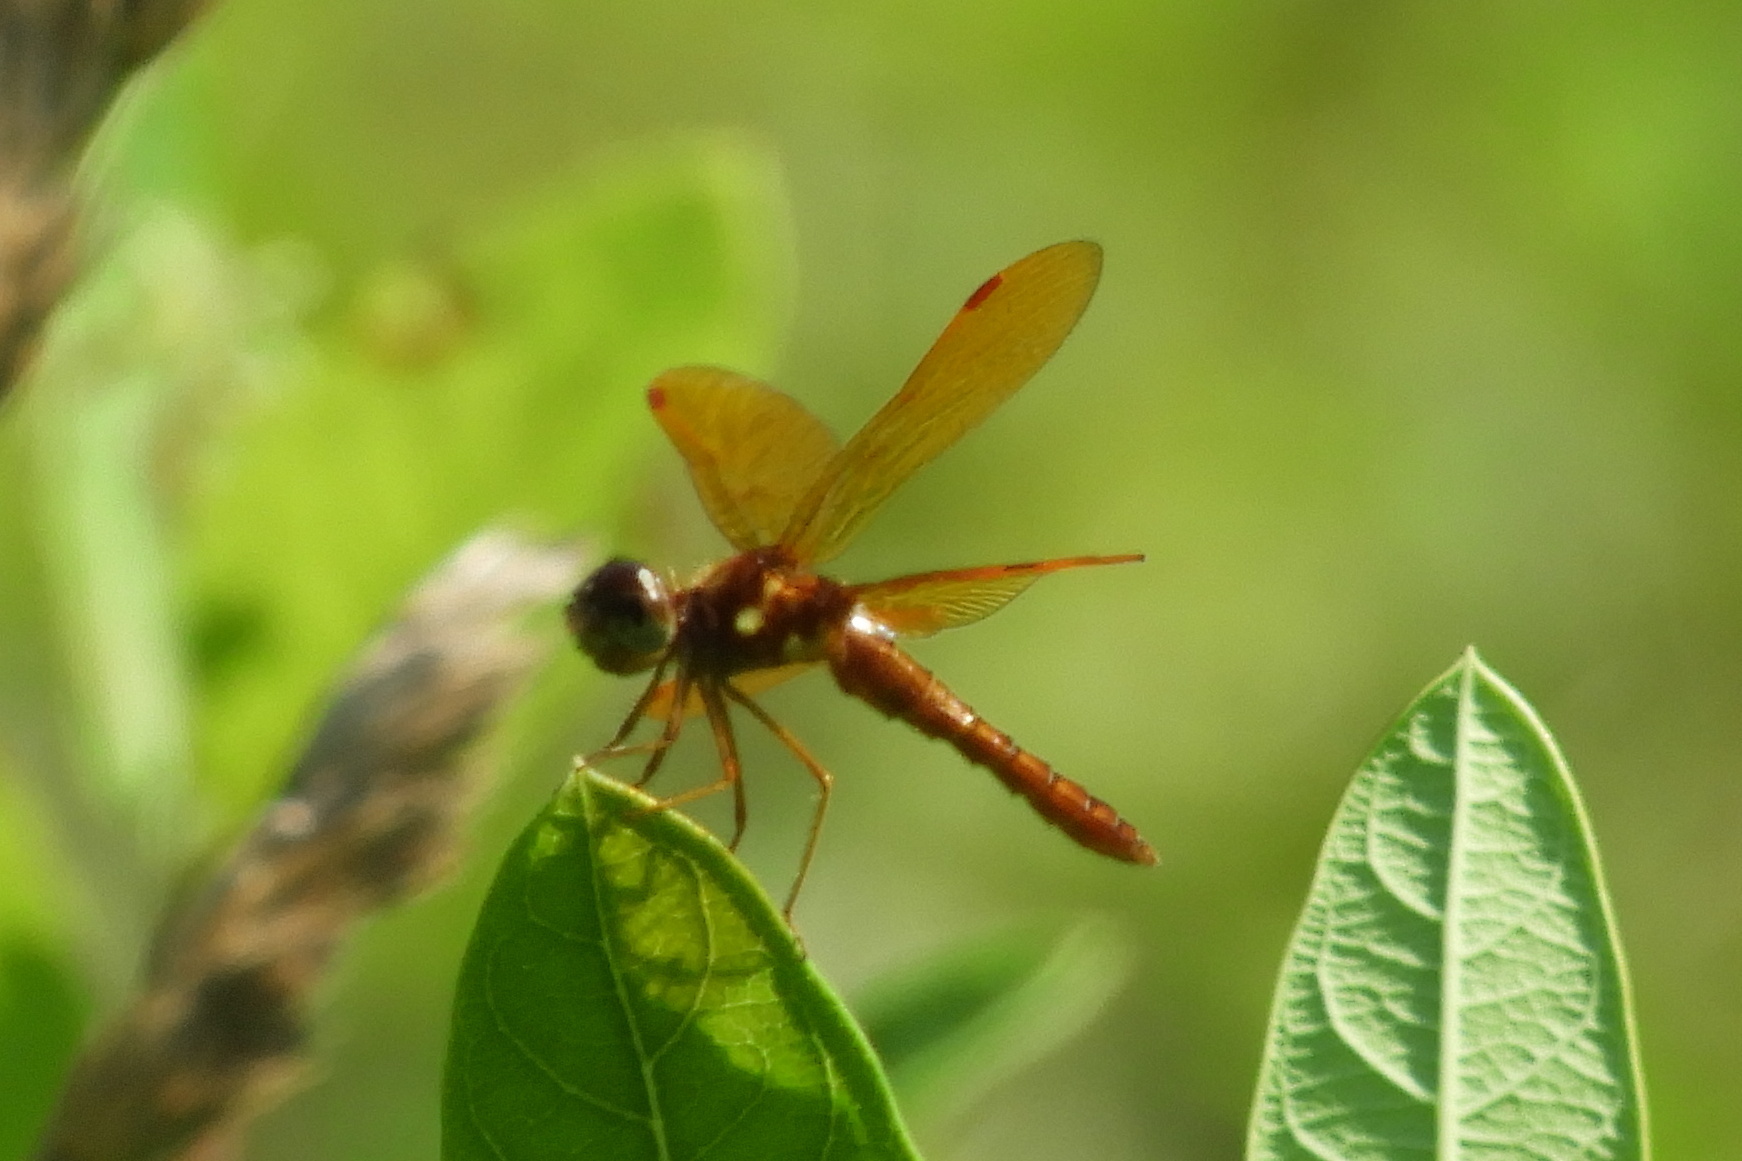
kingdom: Animalia
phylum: Arthropoda
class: Insecta
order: Odonata
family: Libellulidae
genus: Perithemis
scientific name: Perithemis tenera
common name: Eastern amberwing
